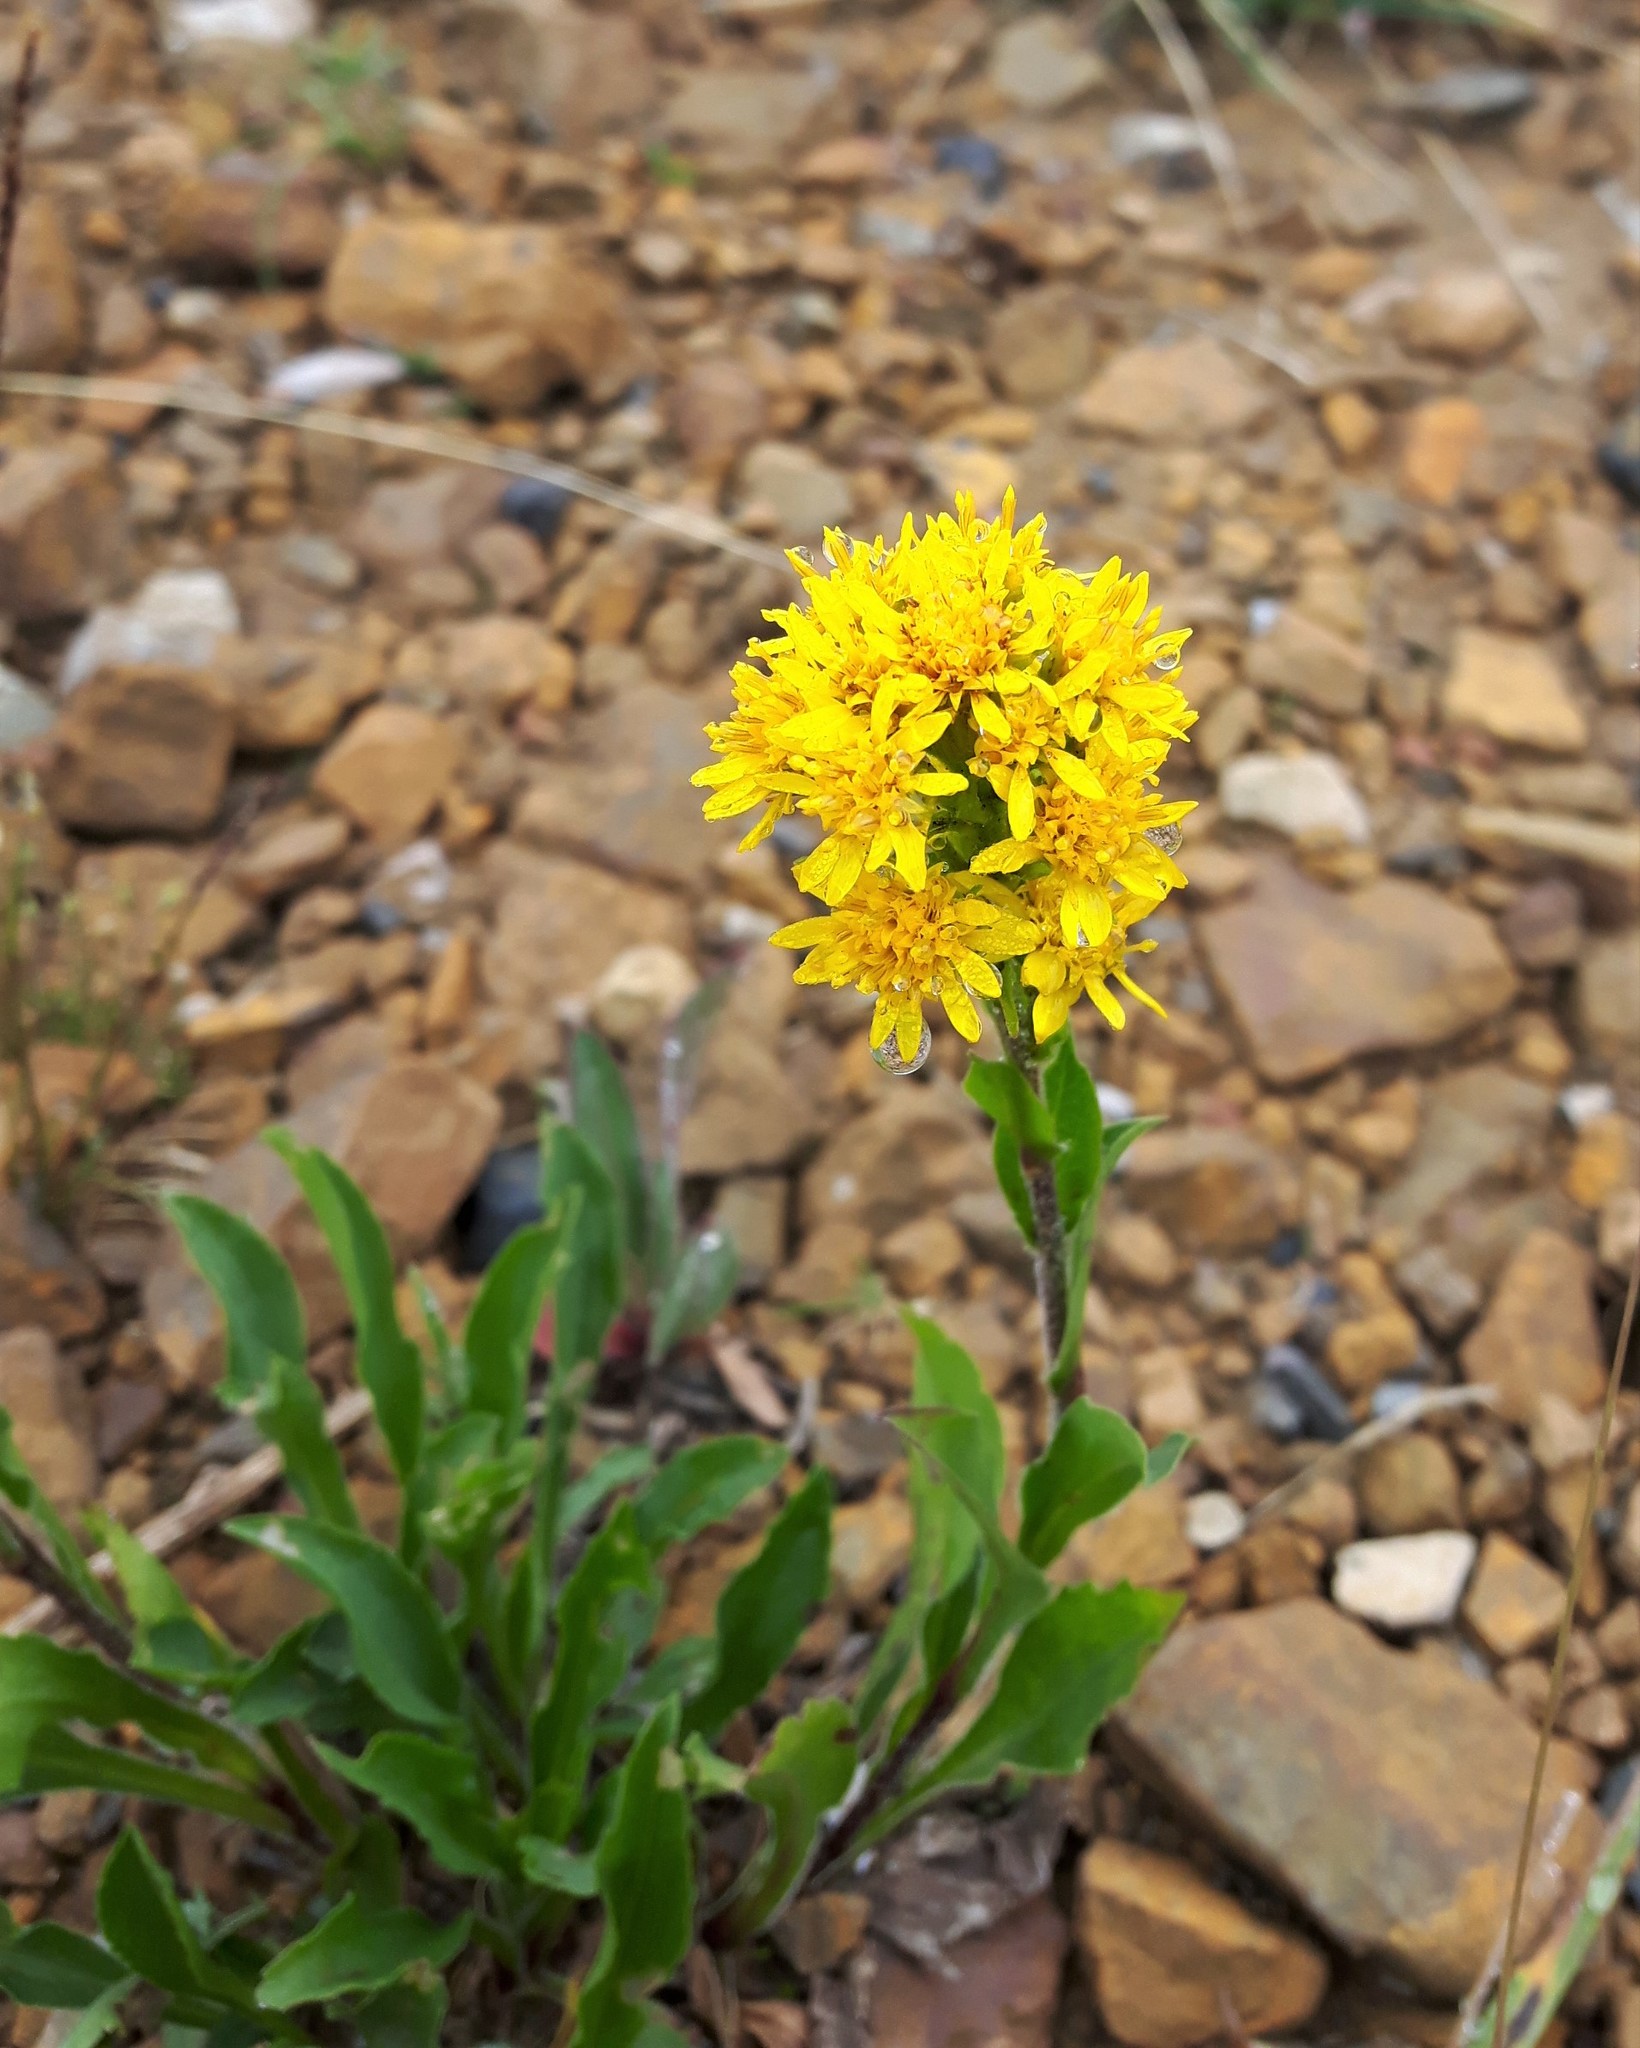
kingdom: Plantae
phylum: Tracheophyta
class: Magnoliopsida
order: Asterales
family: Asteraceae
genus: Solidago
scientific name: Solidago multiradiata
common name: Northern goldenrod
